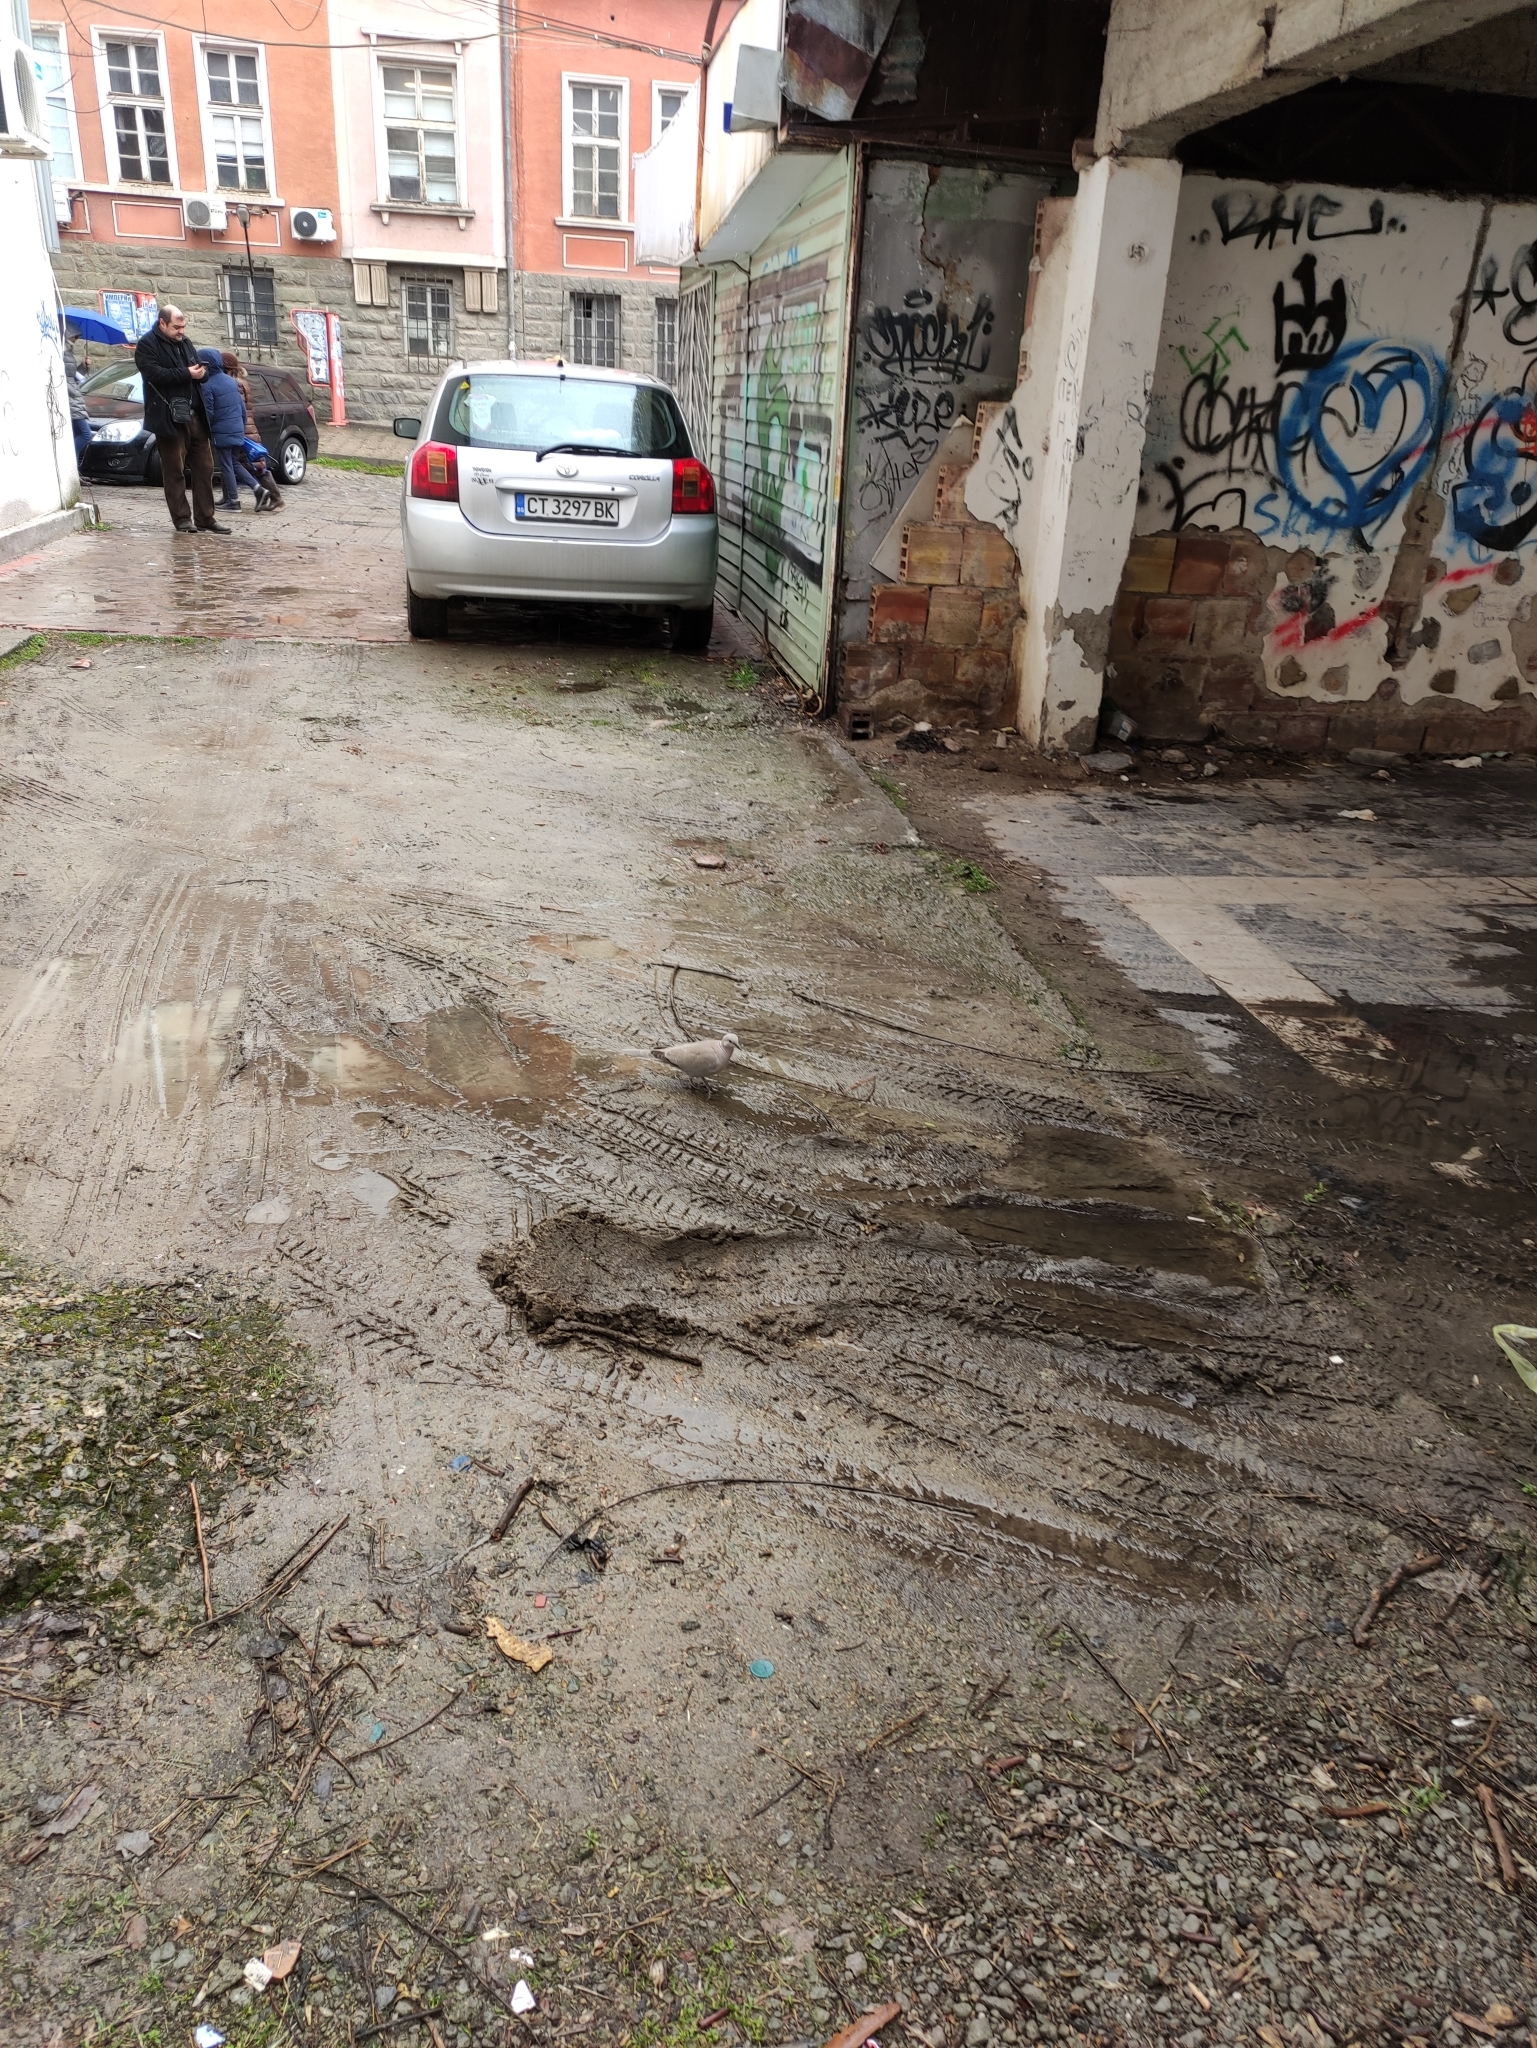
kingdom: Animalia
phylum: Chordata
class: Aves
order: Columbiformes
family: Columbidae
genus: Streptopelia
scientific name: Streptopelia decaocto
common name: Eurasian collared dove
